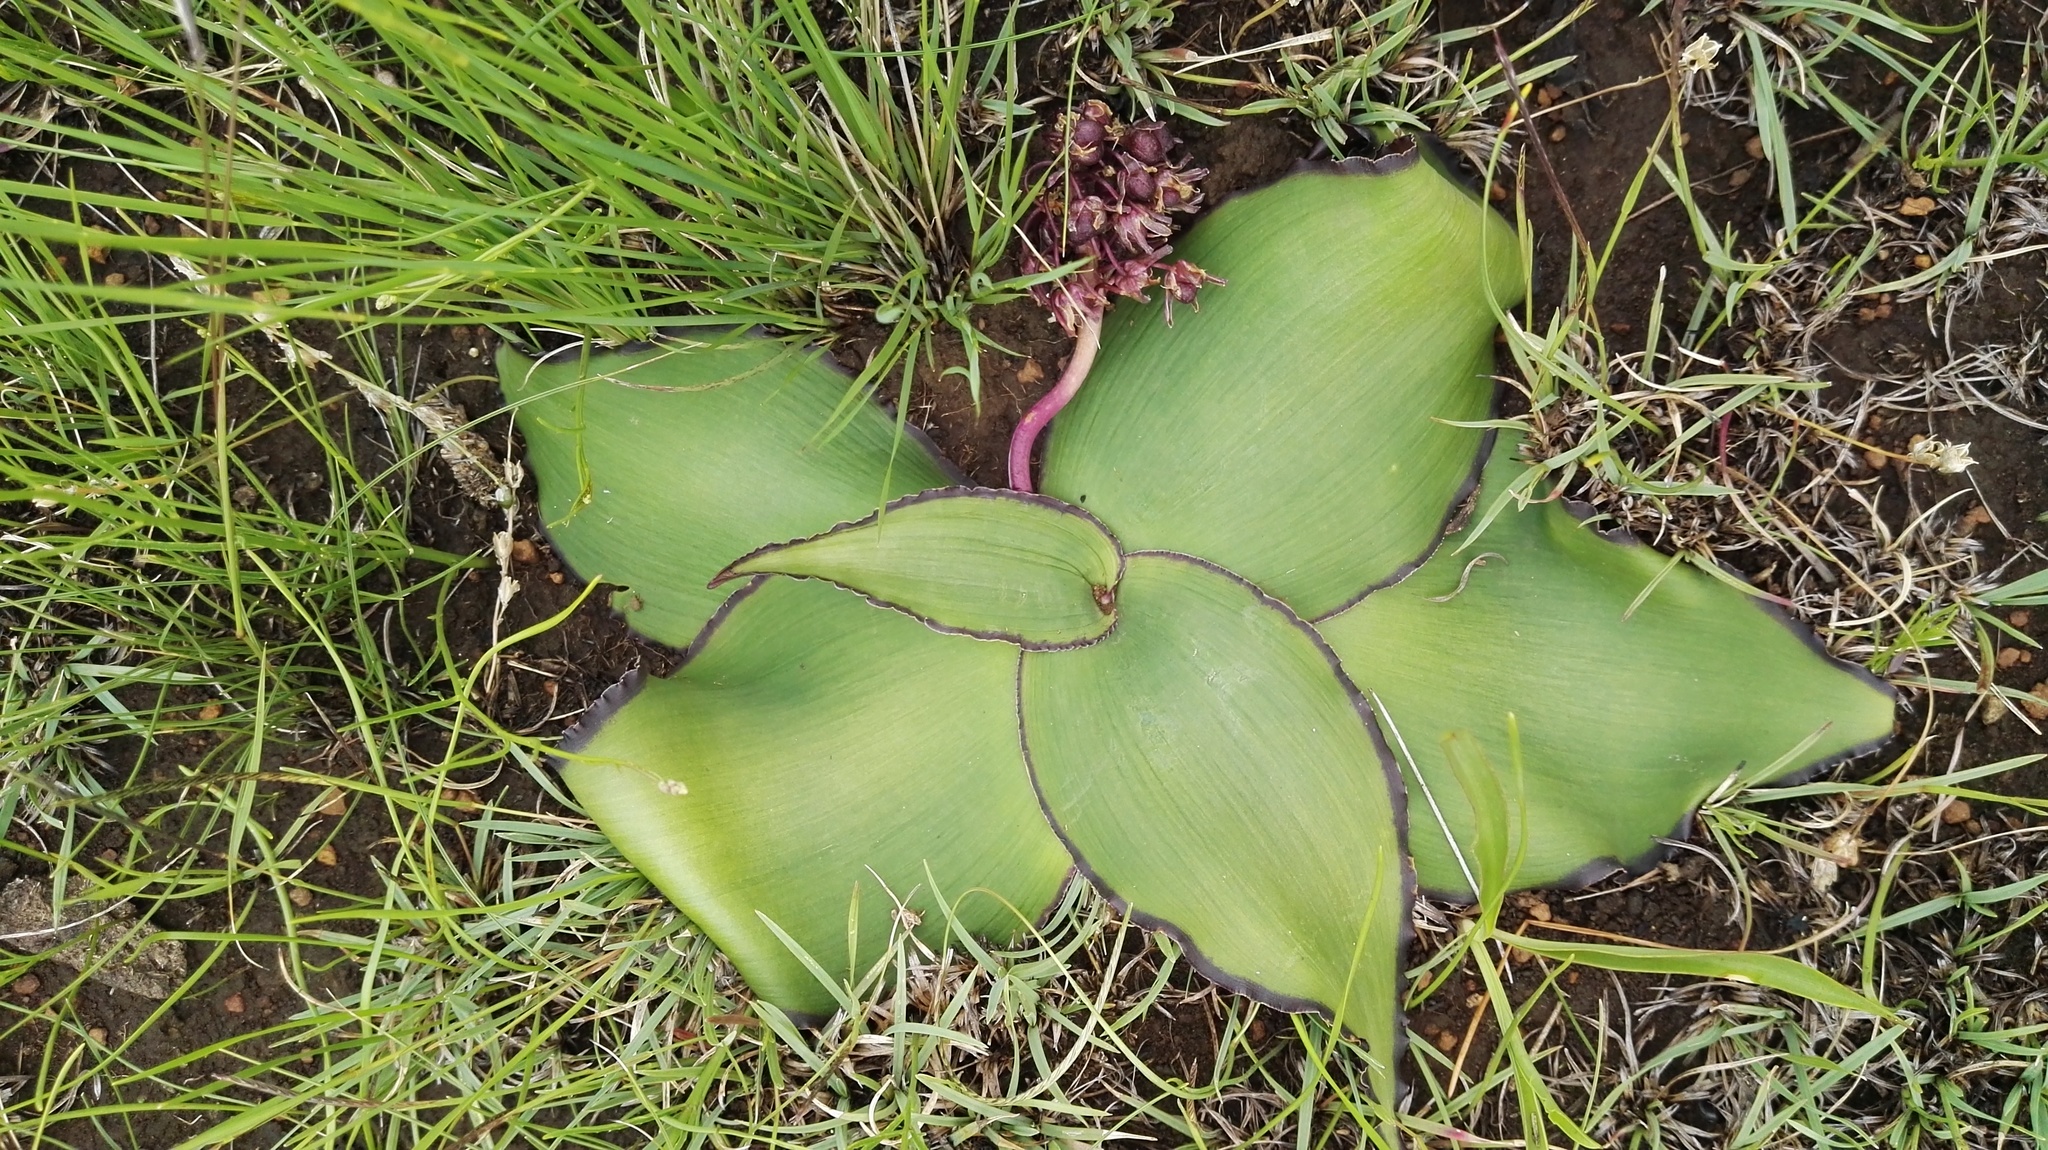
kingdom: Plantae
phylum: Tracheophyta
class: Liliopsida
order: Asparagales
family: Asparagaceae
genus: Ledebouria
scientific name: Ledebouria ovatifolia
